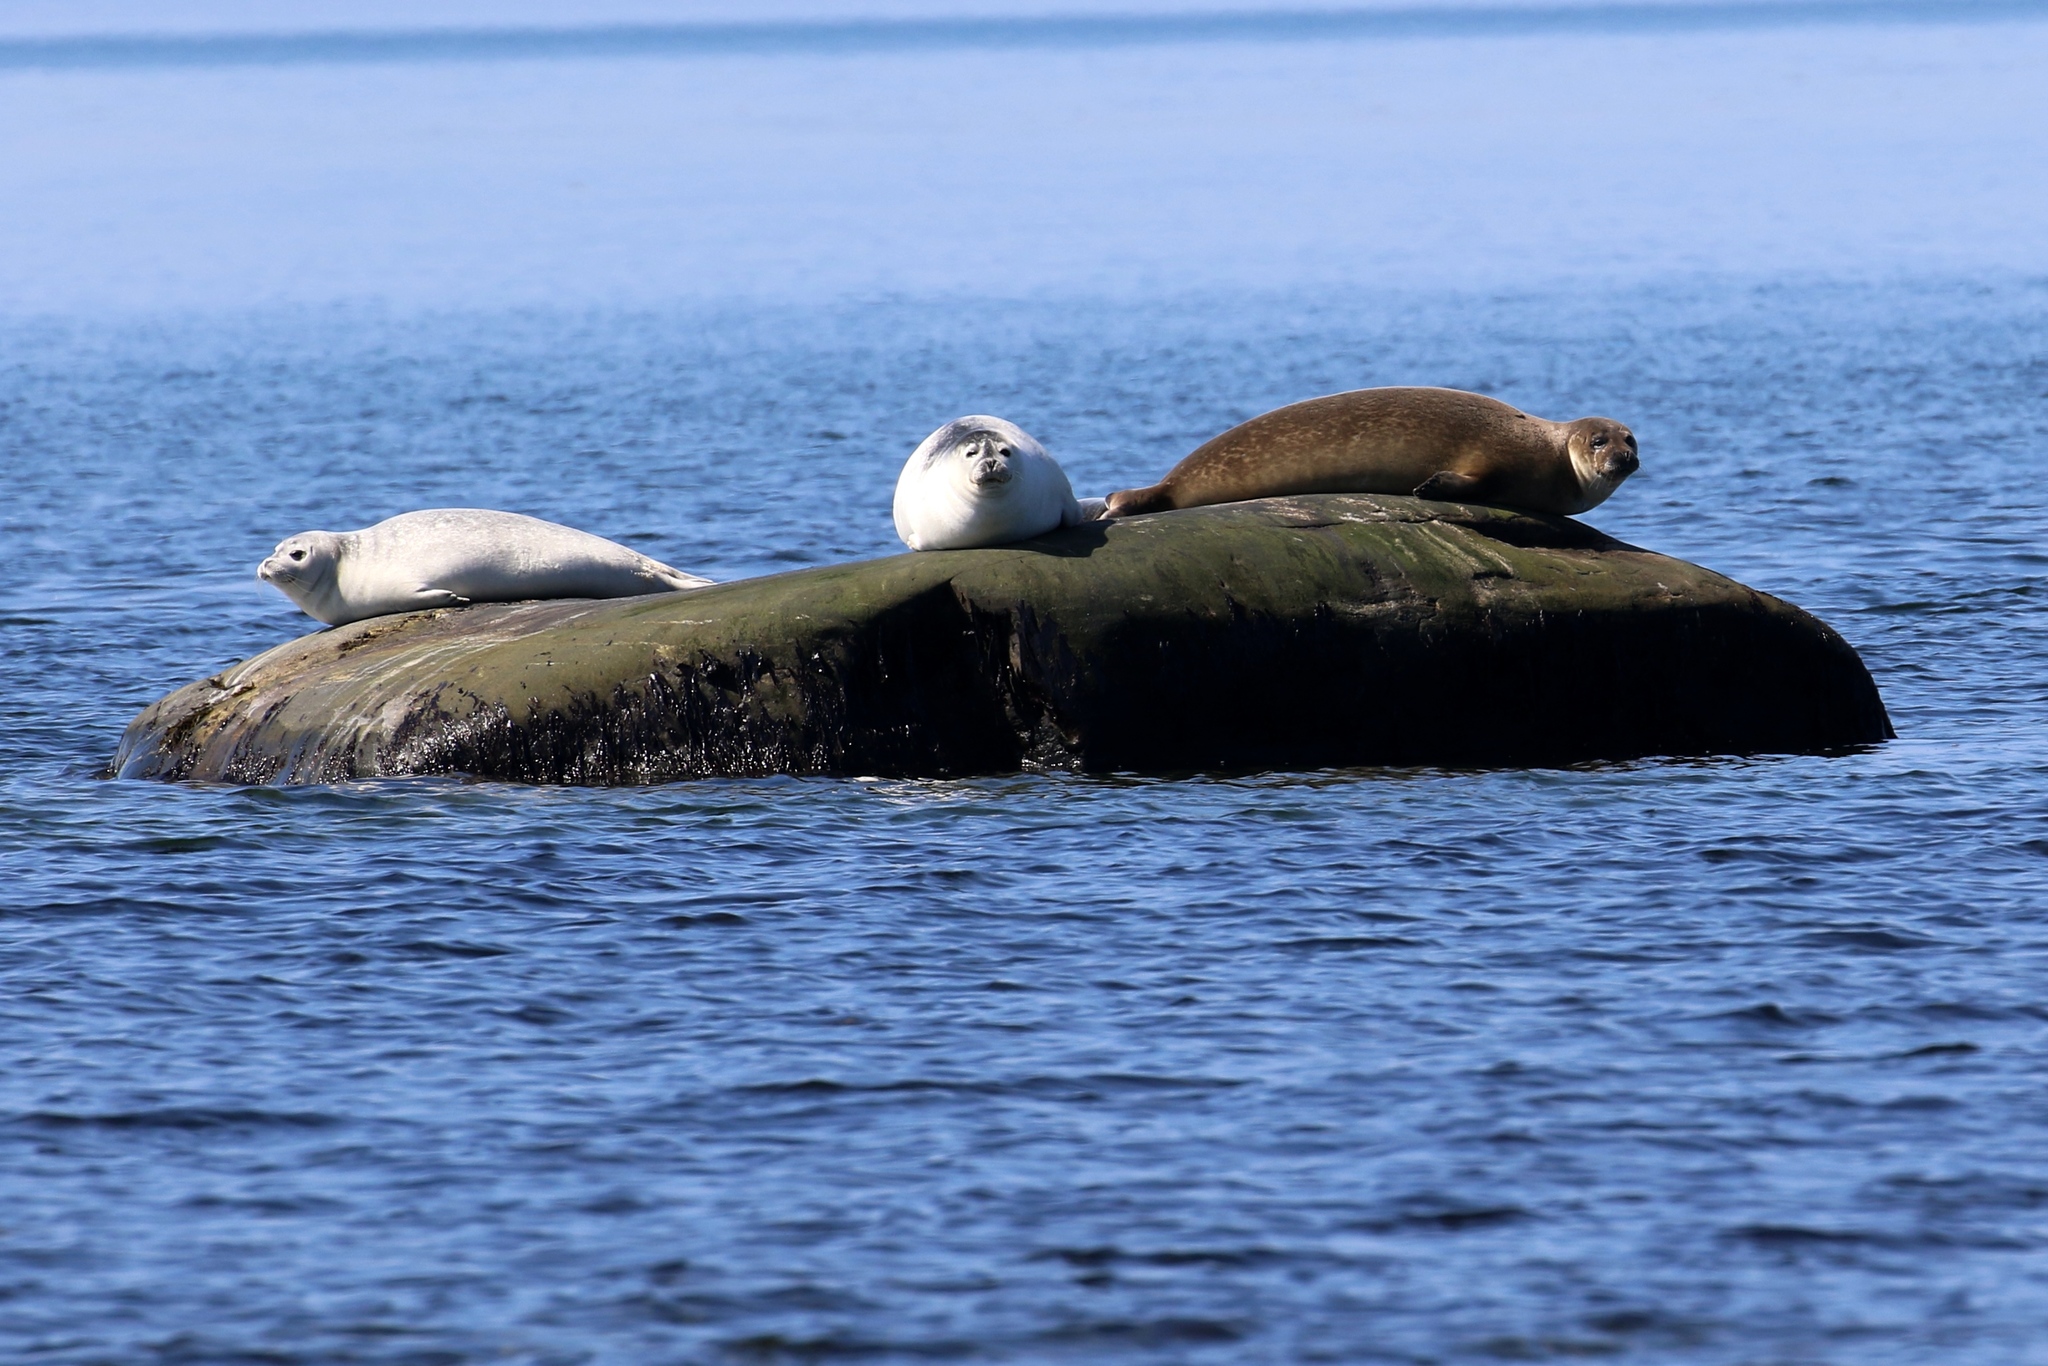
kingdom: Animalia
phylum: Chordata
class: Mammalia
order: Carnivora
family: Phocidae
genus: Phoca
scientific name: Phoca vitulina
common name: Harbor seal
